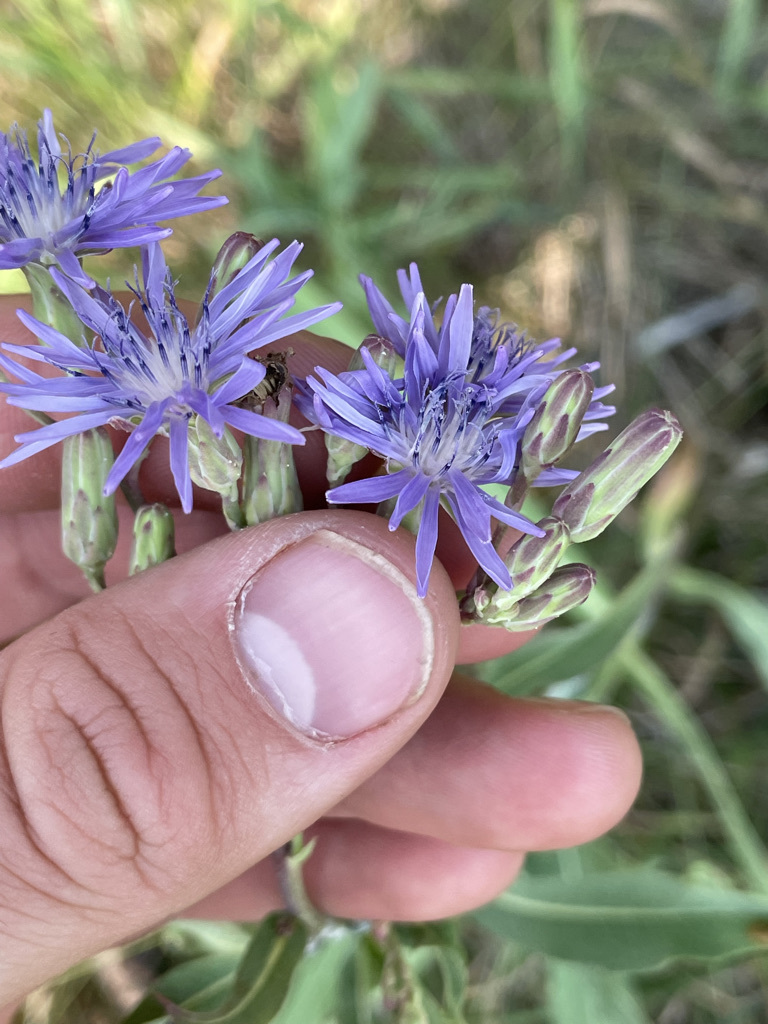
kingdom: Plantae
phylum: Tracheophyta
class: Magnoliopsida
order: Asterales
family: Asteraceae
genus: Lactuca
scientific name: Lactuca pulchella
